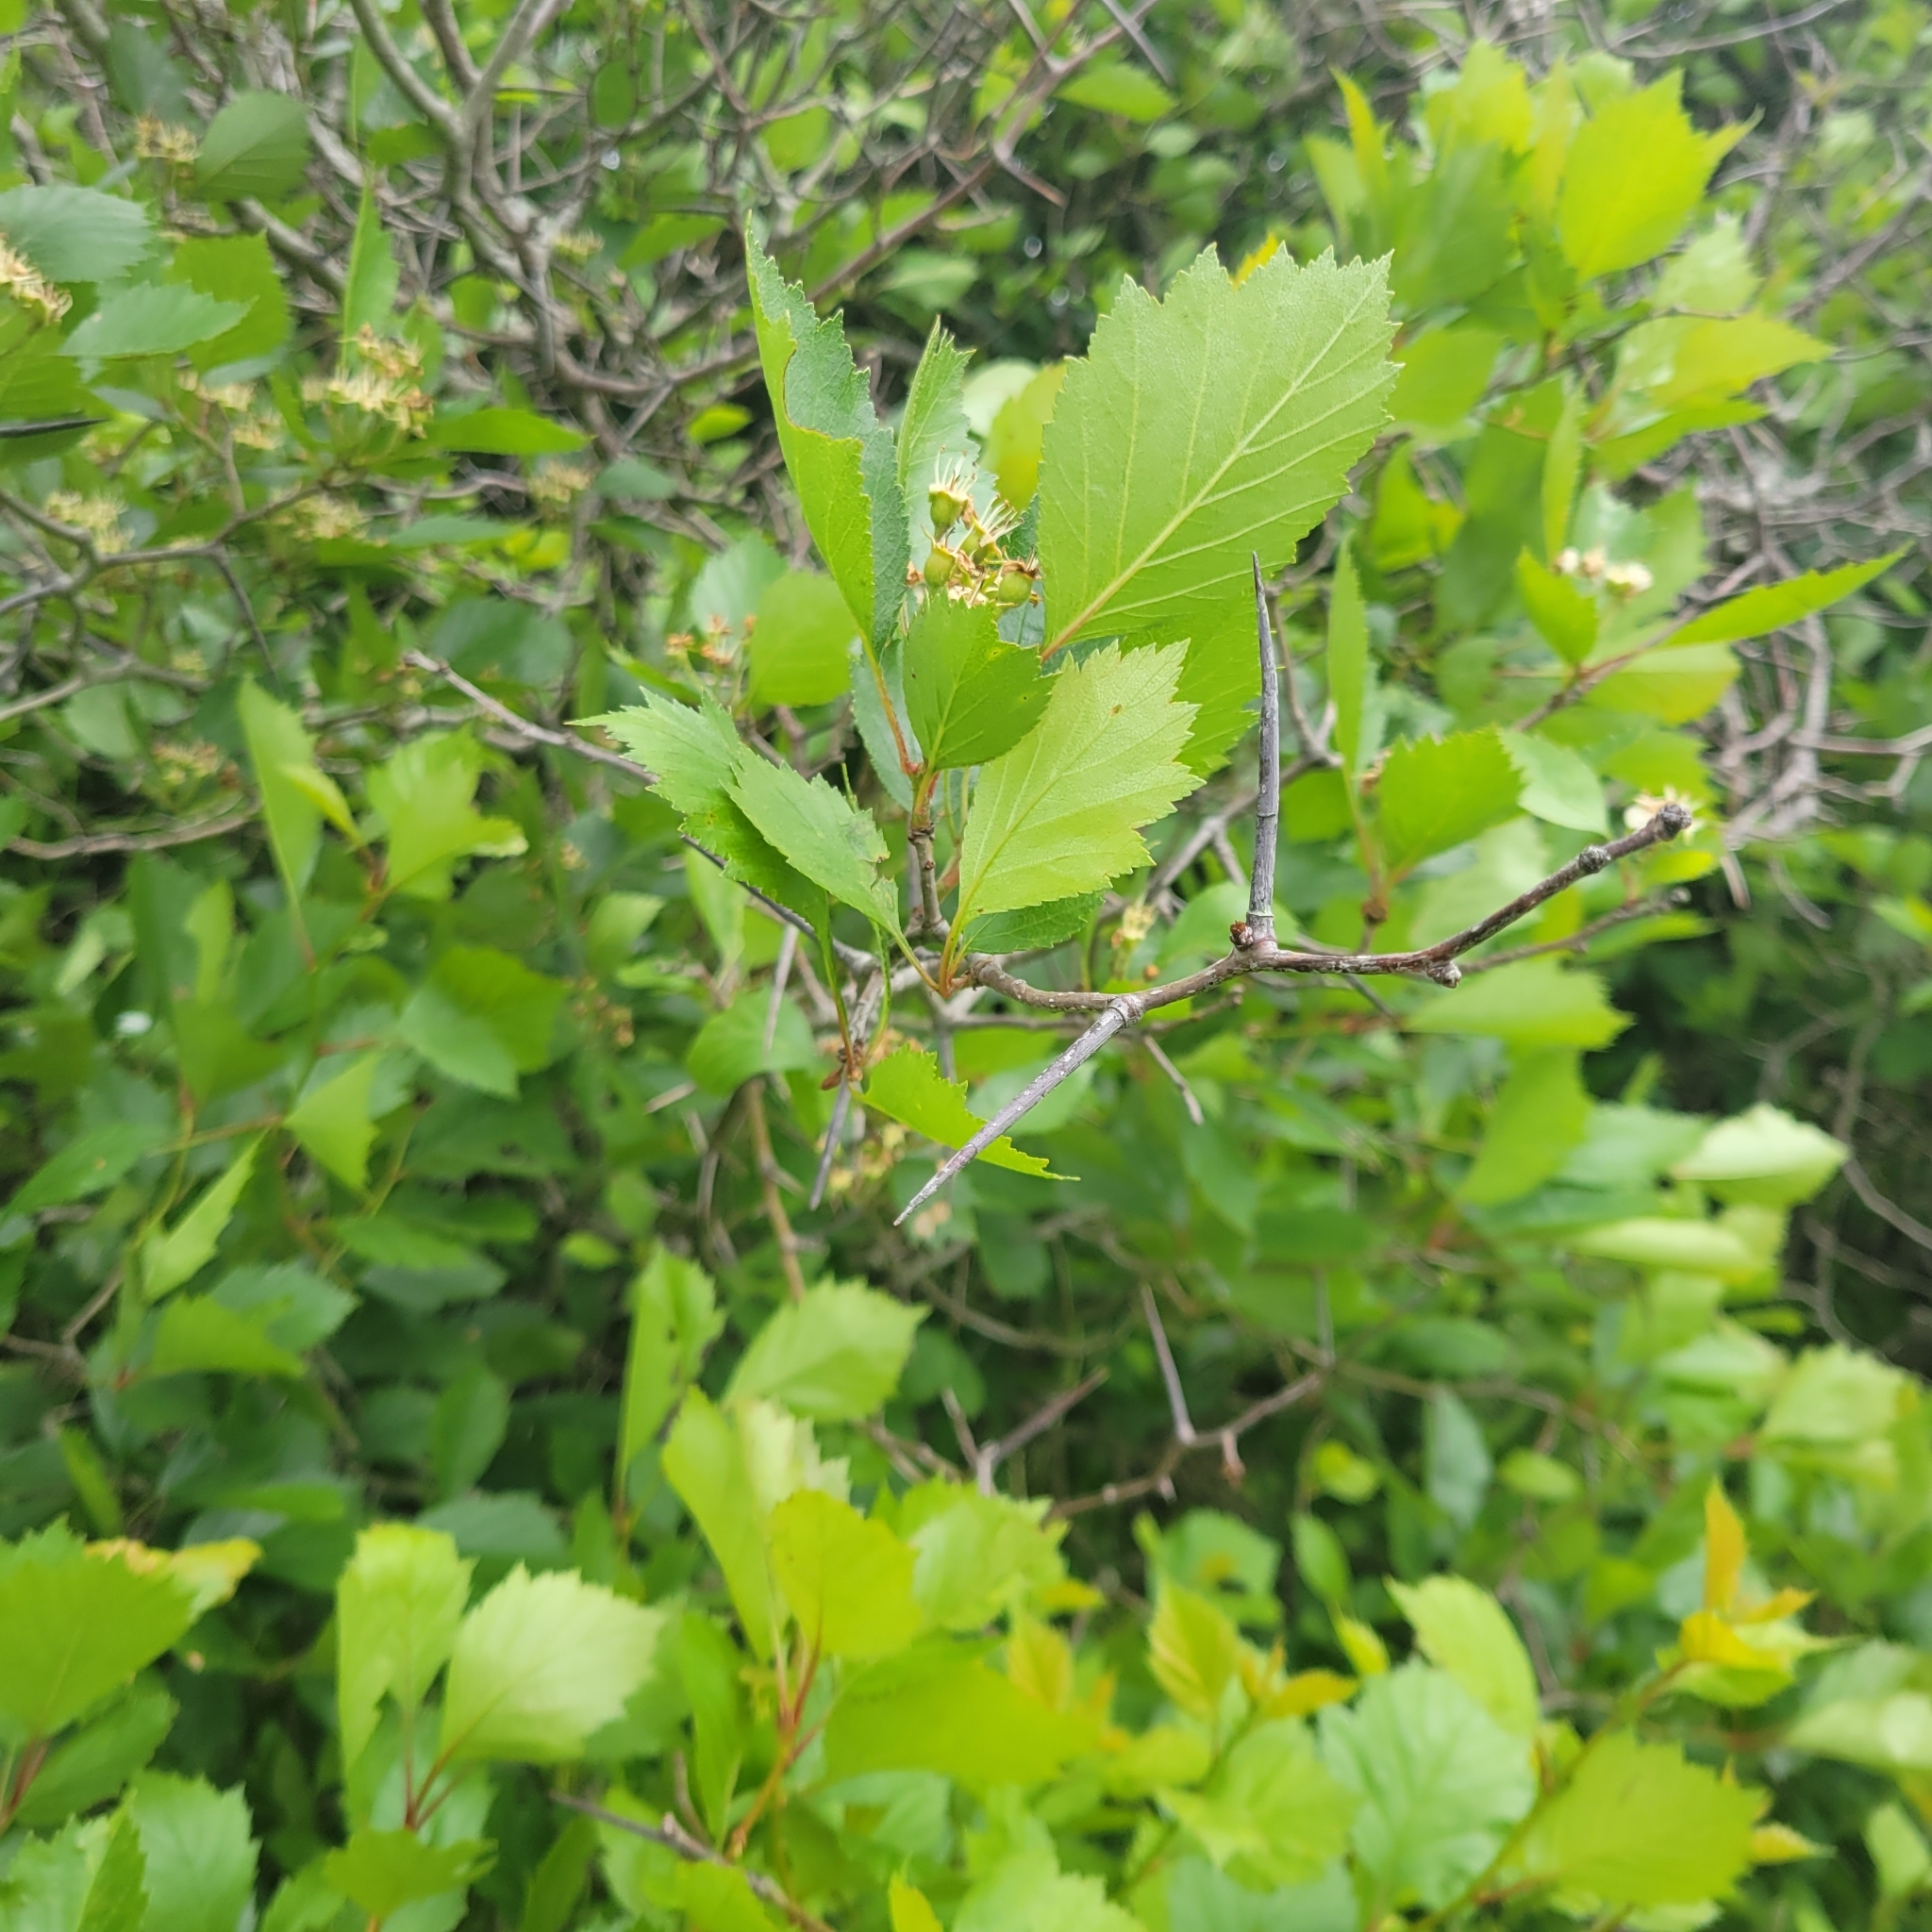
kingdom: Plantae
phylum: Tracheophyta
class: Magnoliopsida
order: Rosales
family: Rosaceae
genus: Crataegus
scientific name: Crataegus chrysocarpa
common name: Fire-berry hawthorn
